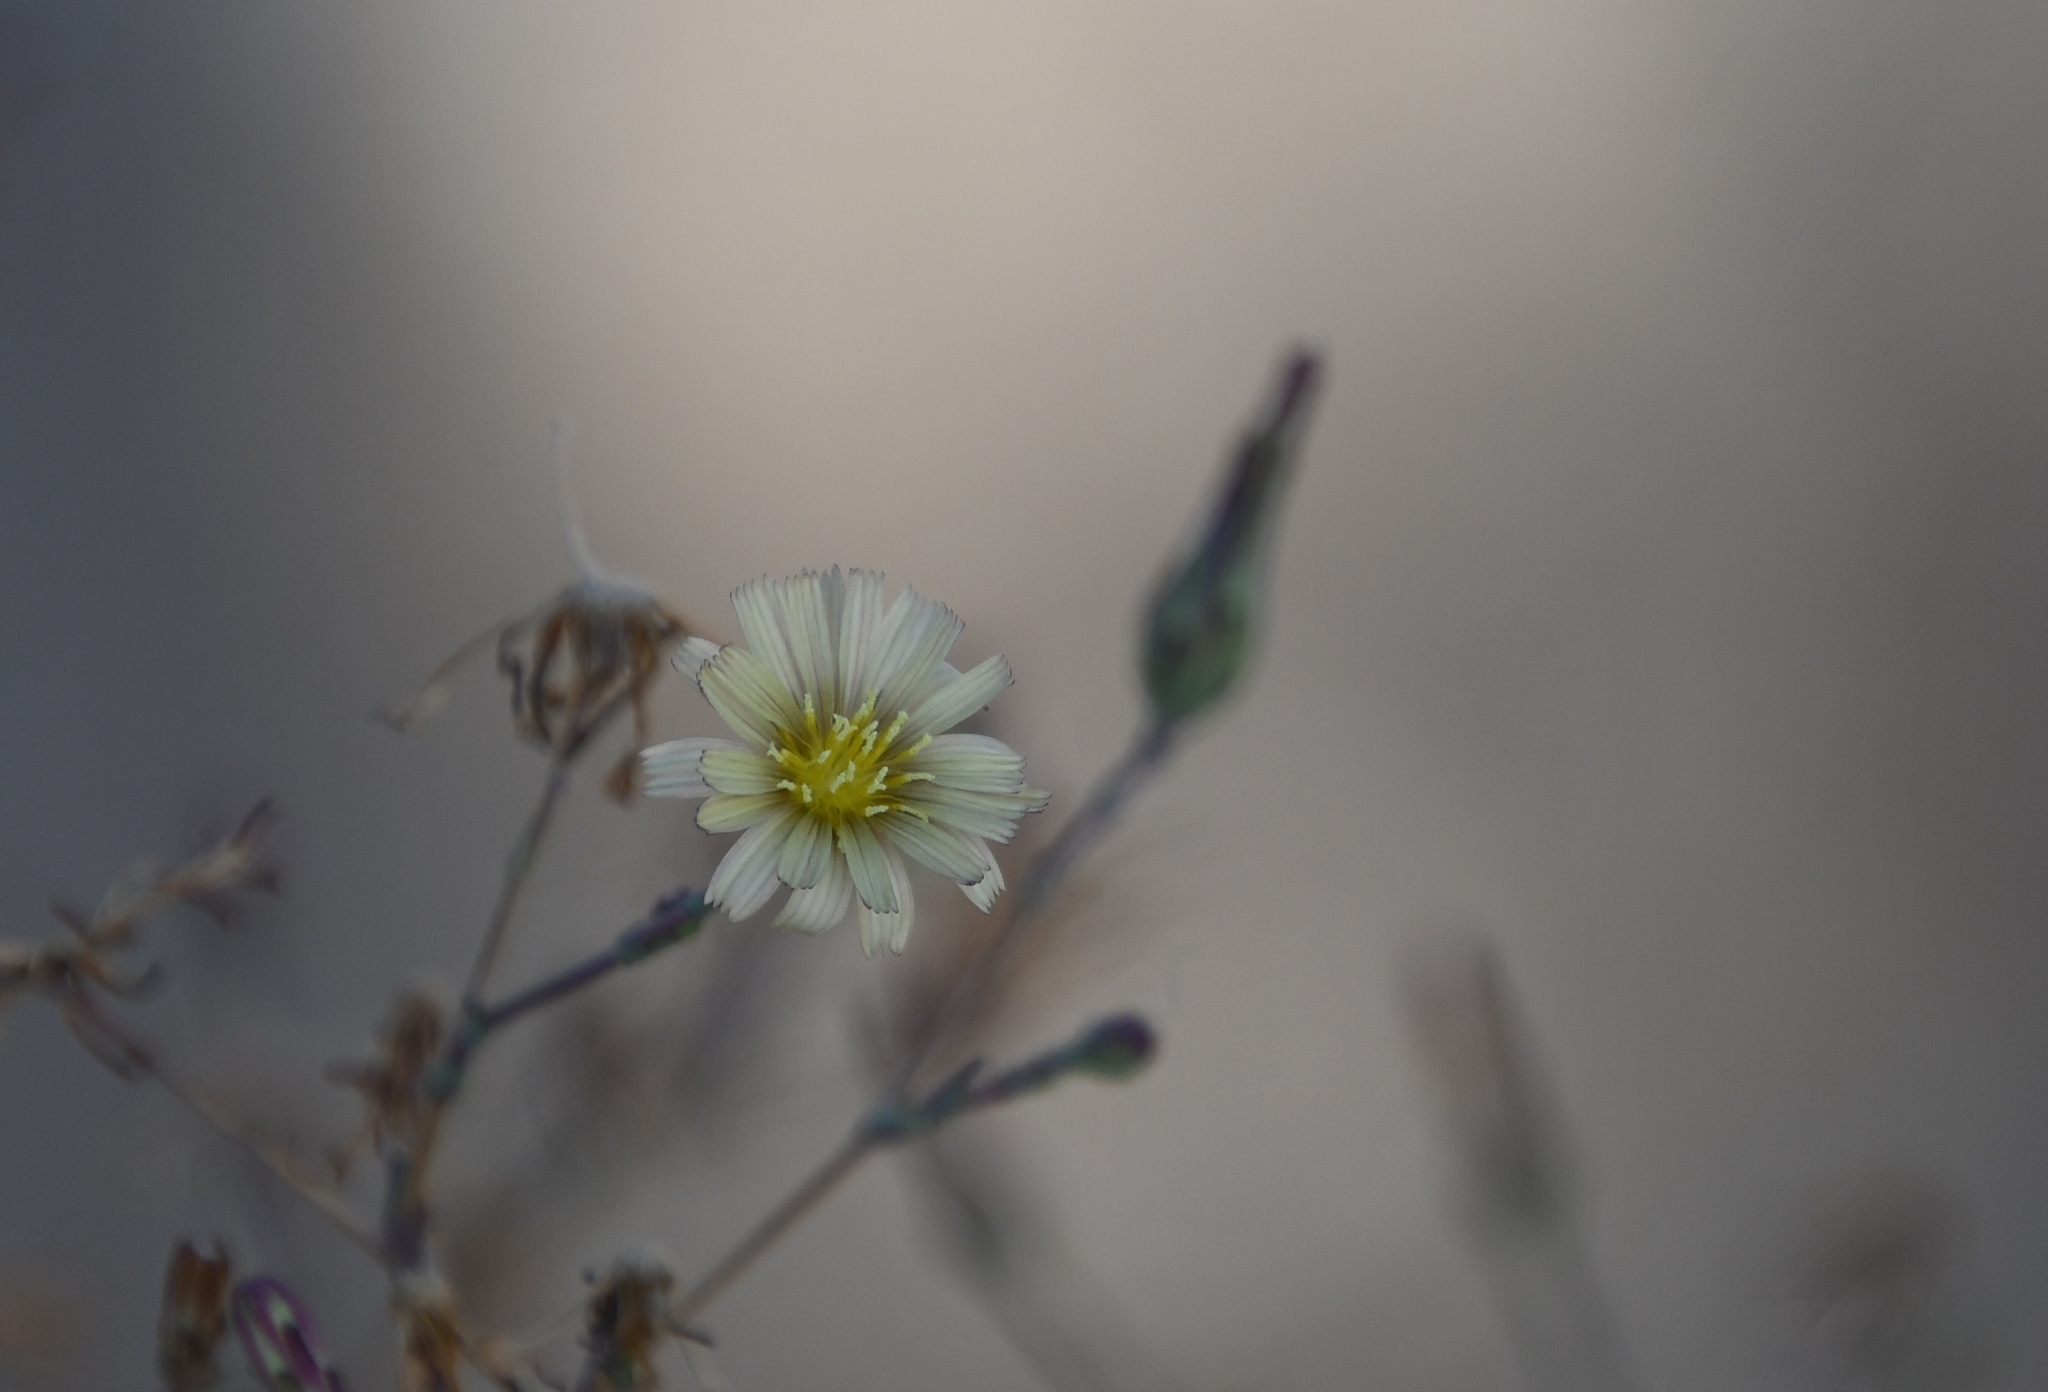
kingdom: Plantae
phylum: Tracheophyta
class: Magnoliopsida
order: Asterales
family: Asteraceae
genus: Lactuca
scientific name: Lactuca serriola
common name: Prickly lettuce
